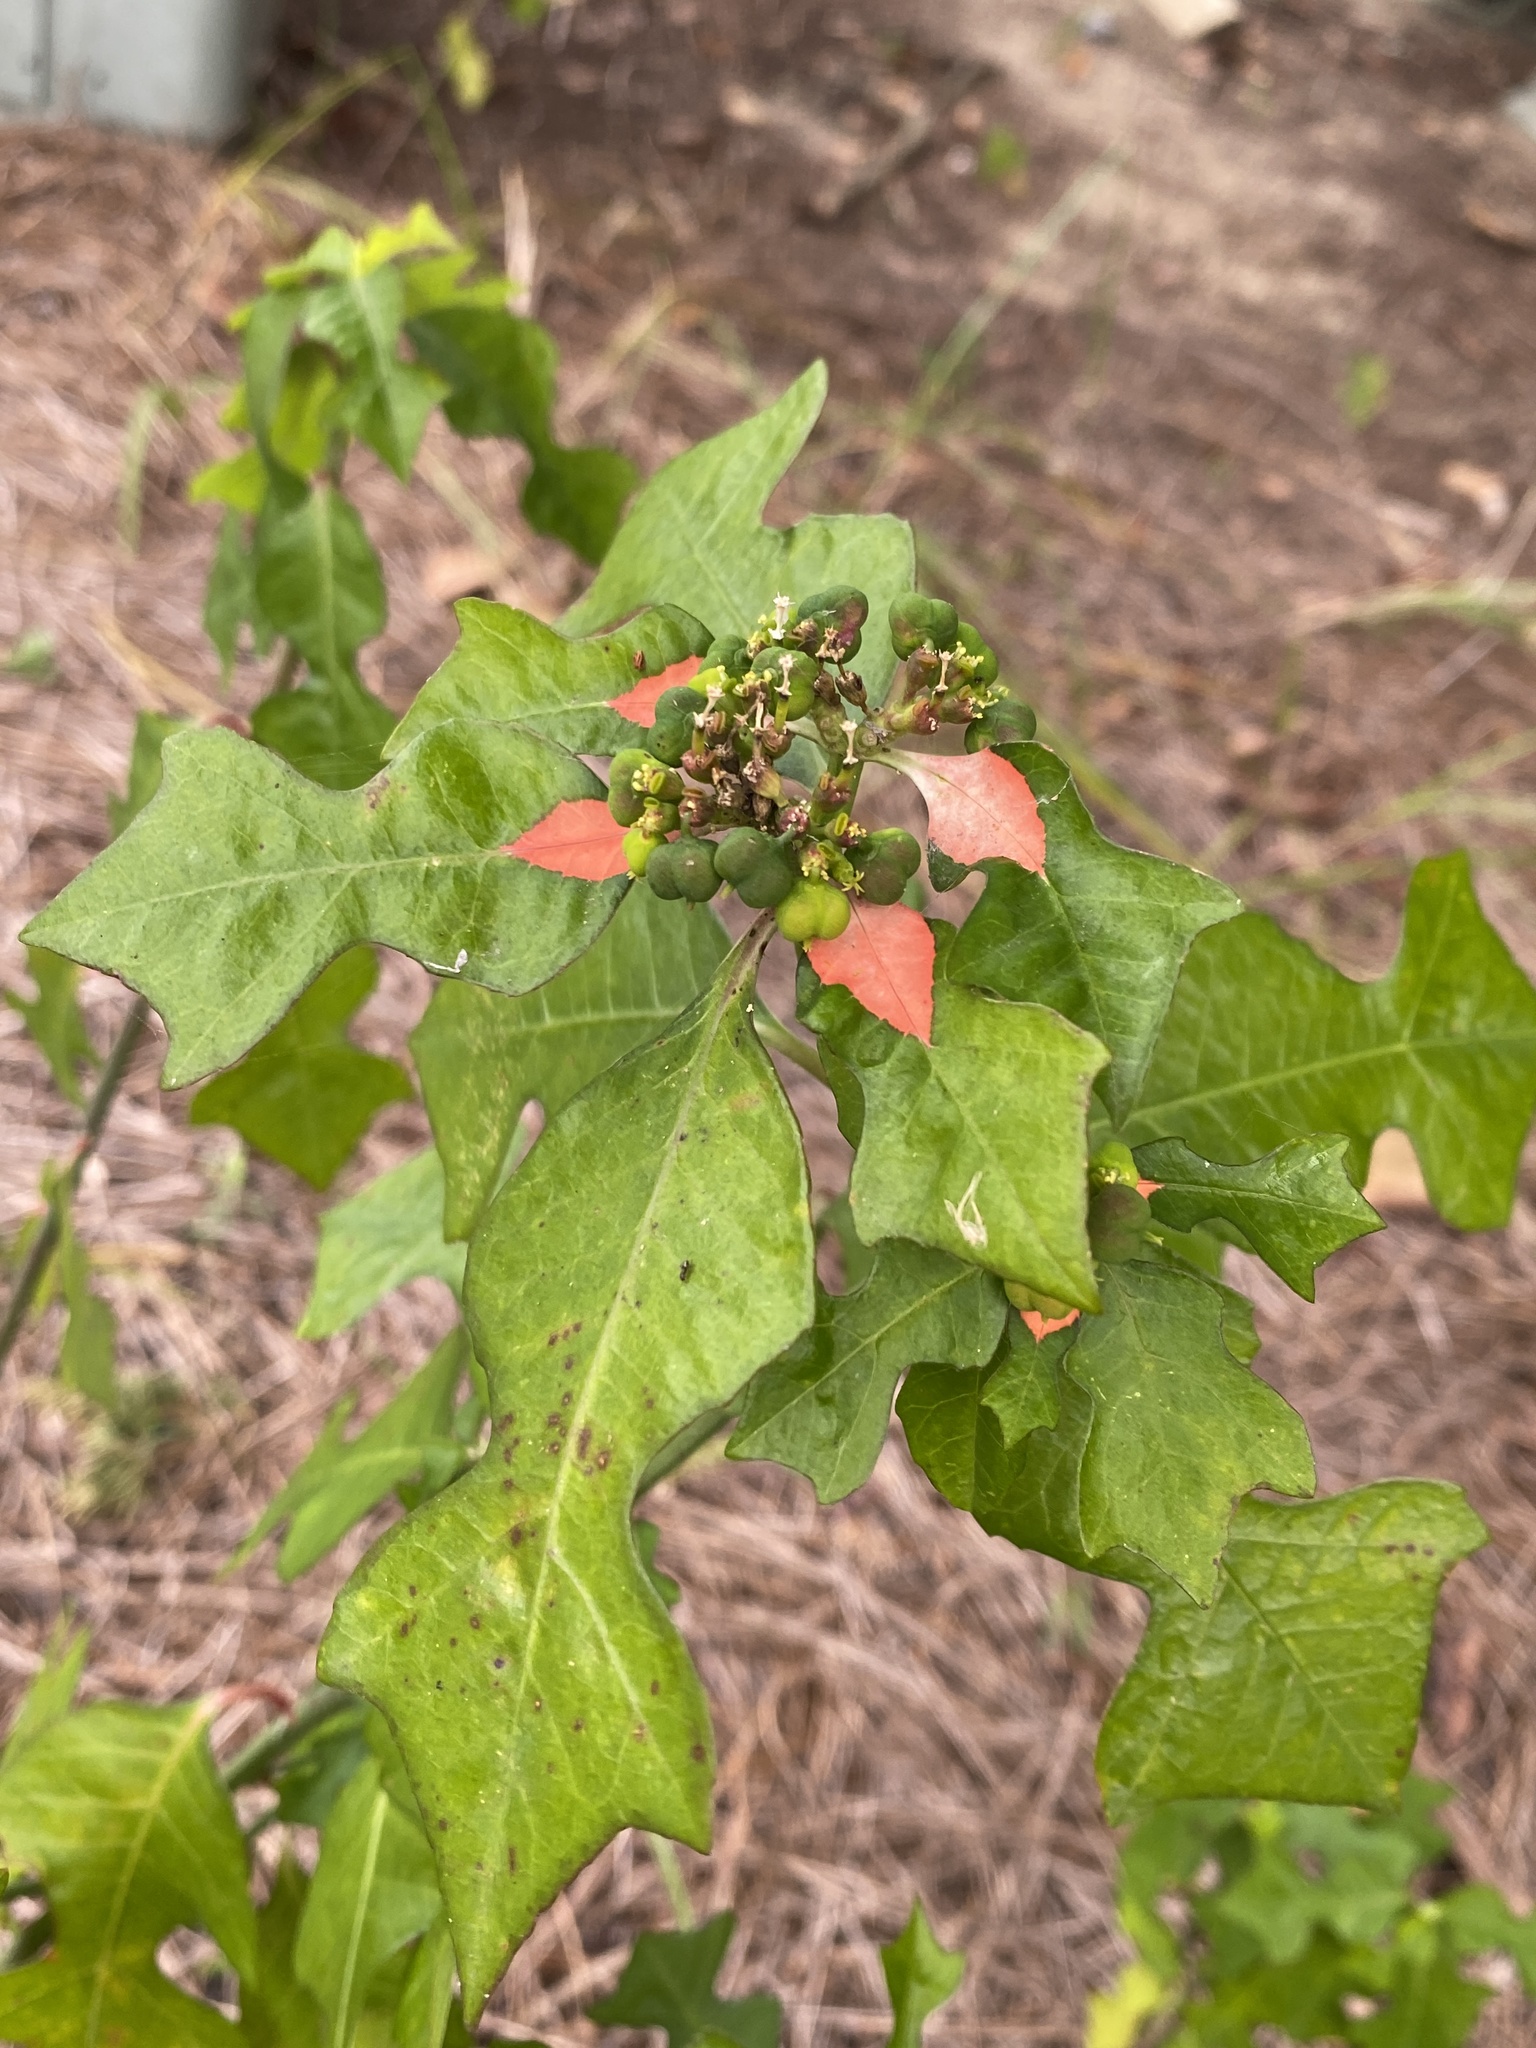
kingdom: Plantae
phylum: Tracheophyta
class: Magnoliopsida
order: Malpighiales
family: Euphorbiaceae
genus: Euphorbia
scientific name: Euphorbia heterophylla
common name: Mexican fireplant
